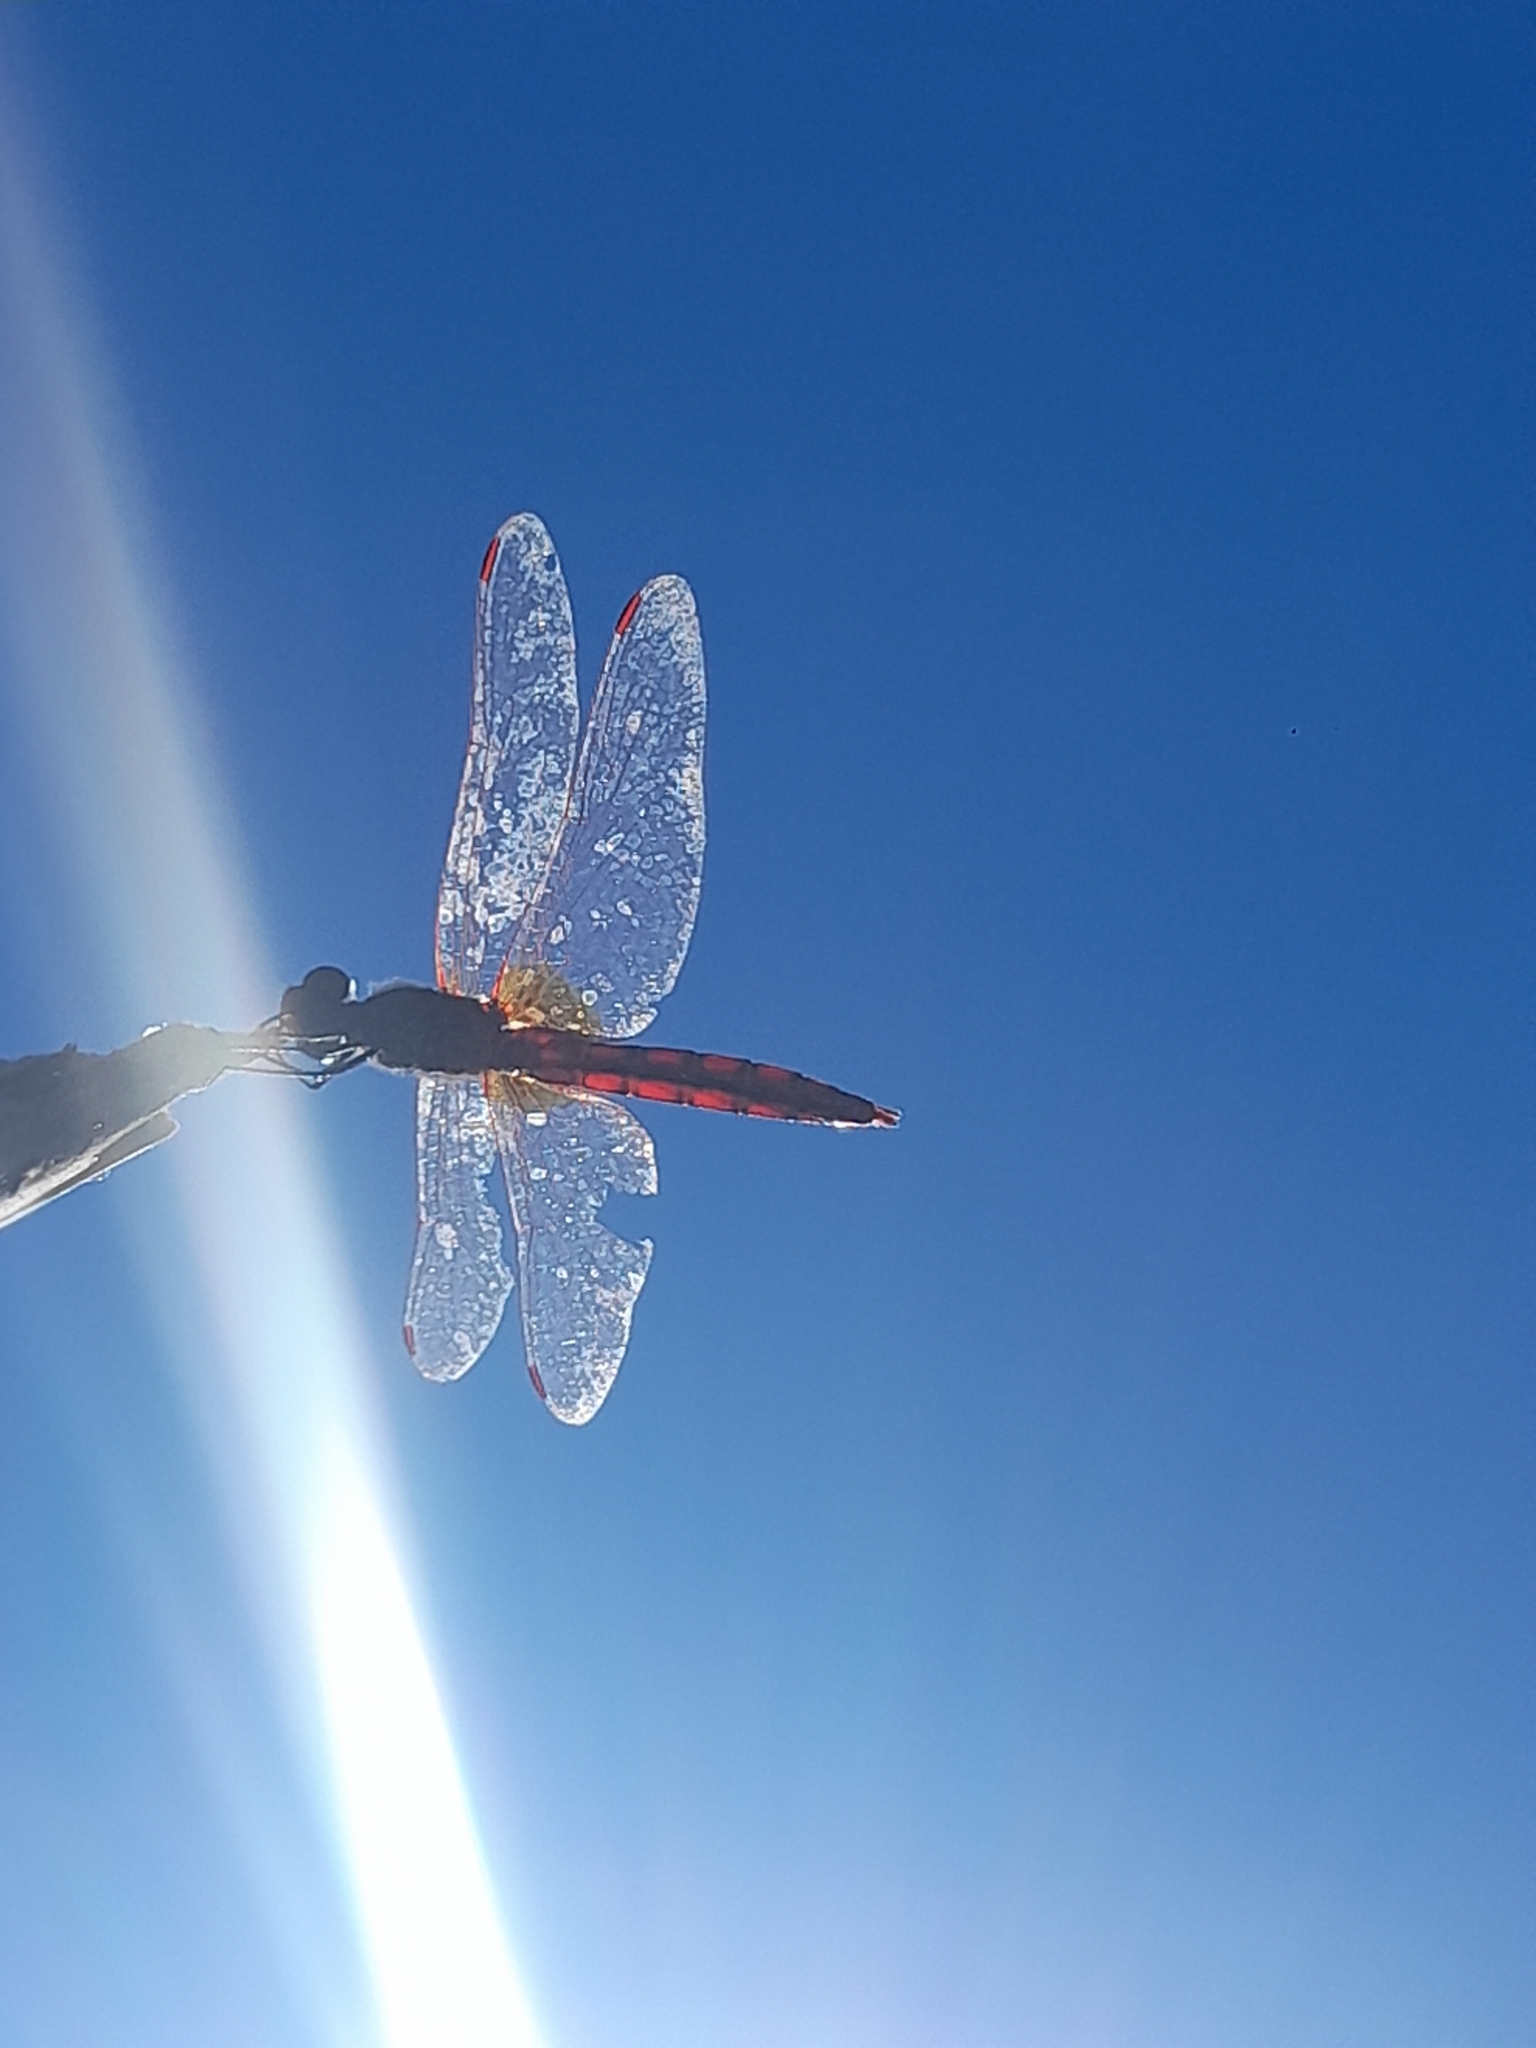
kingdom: Animalia
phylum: Arthropoda
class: Insecta
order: Odonata
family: Libellulidae
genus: Crocothemis
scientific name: Crocothemis erythraea
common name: Scarlet dragonfly
